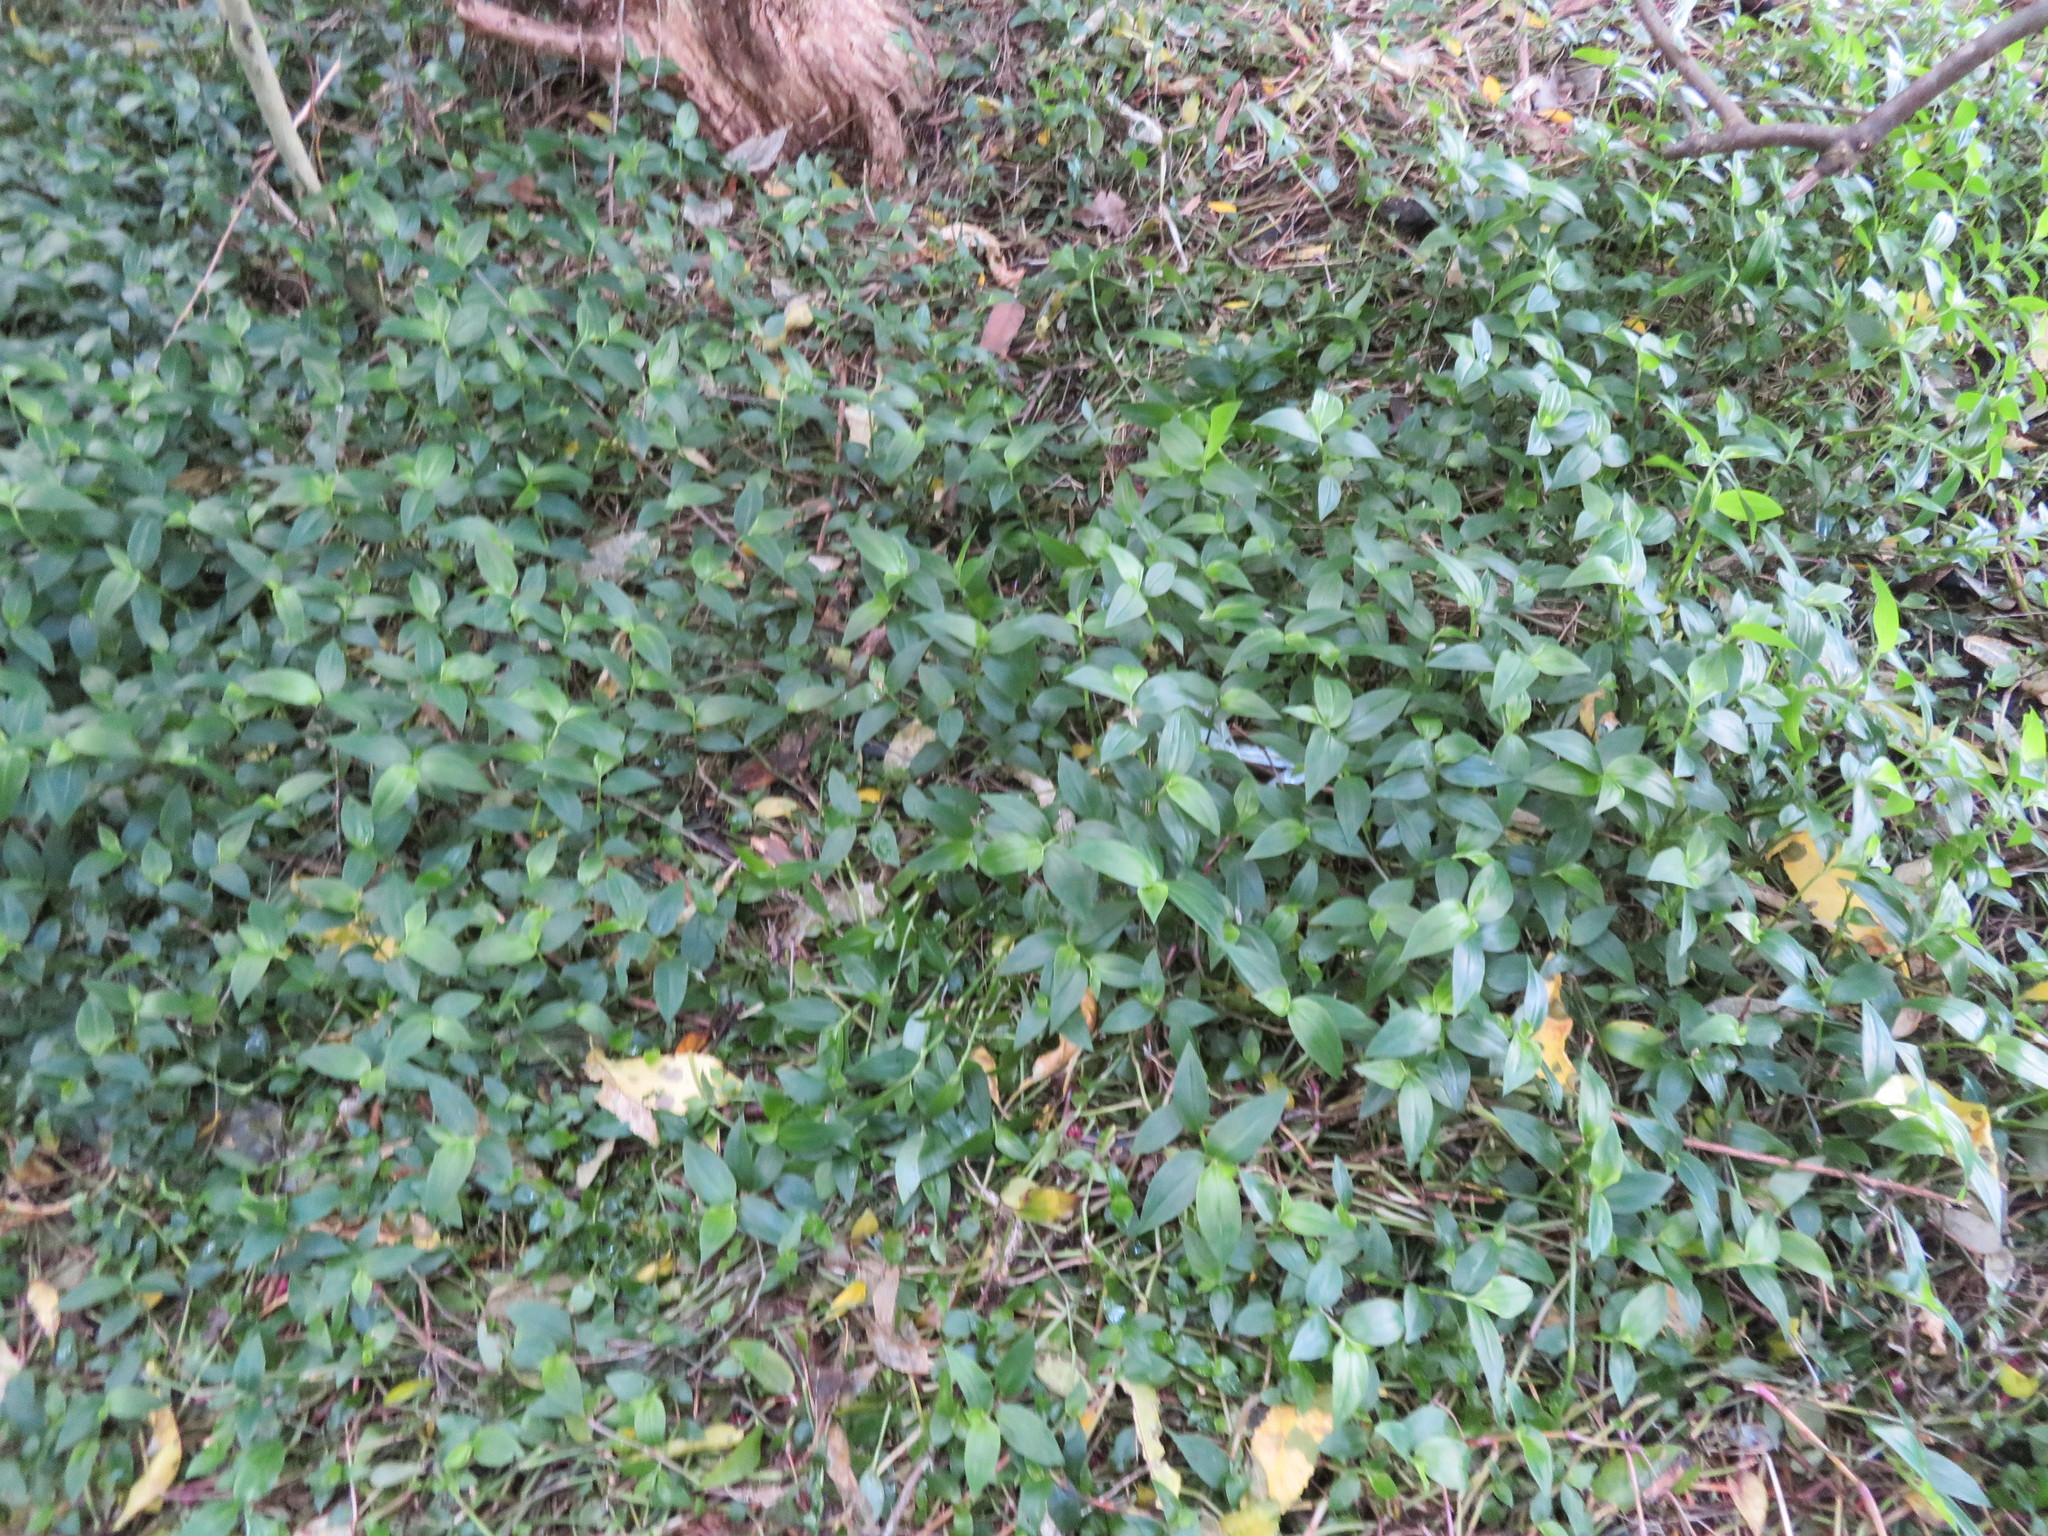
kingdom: Plantae
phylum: Tracheophyta
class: Liliopsida
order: Commelinales
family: Commelinaceae
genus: Tradescantia
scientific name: Tradescantia fluminensis
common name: Wandering-jew
